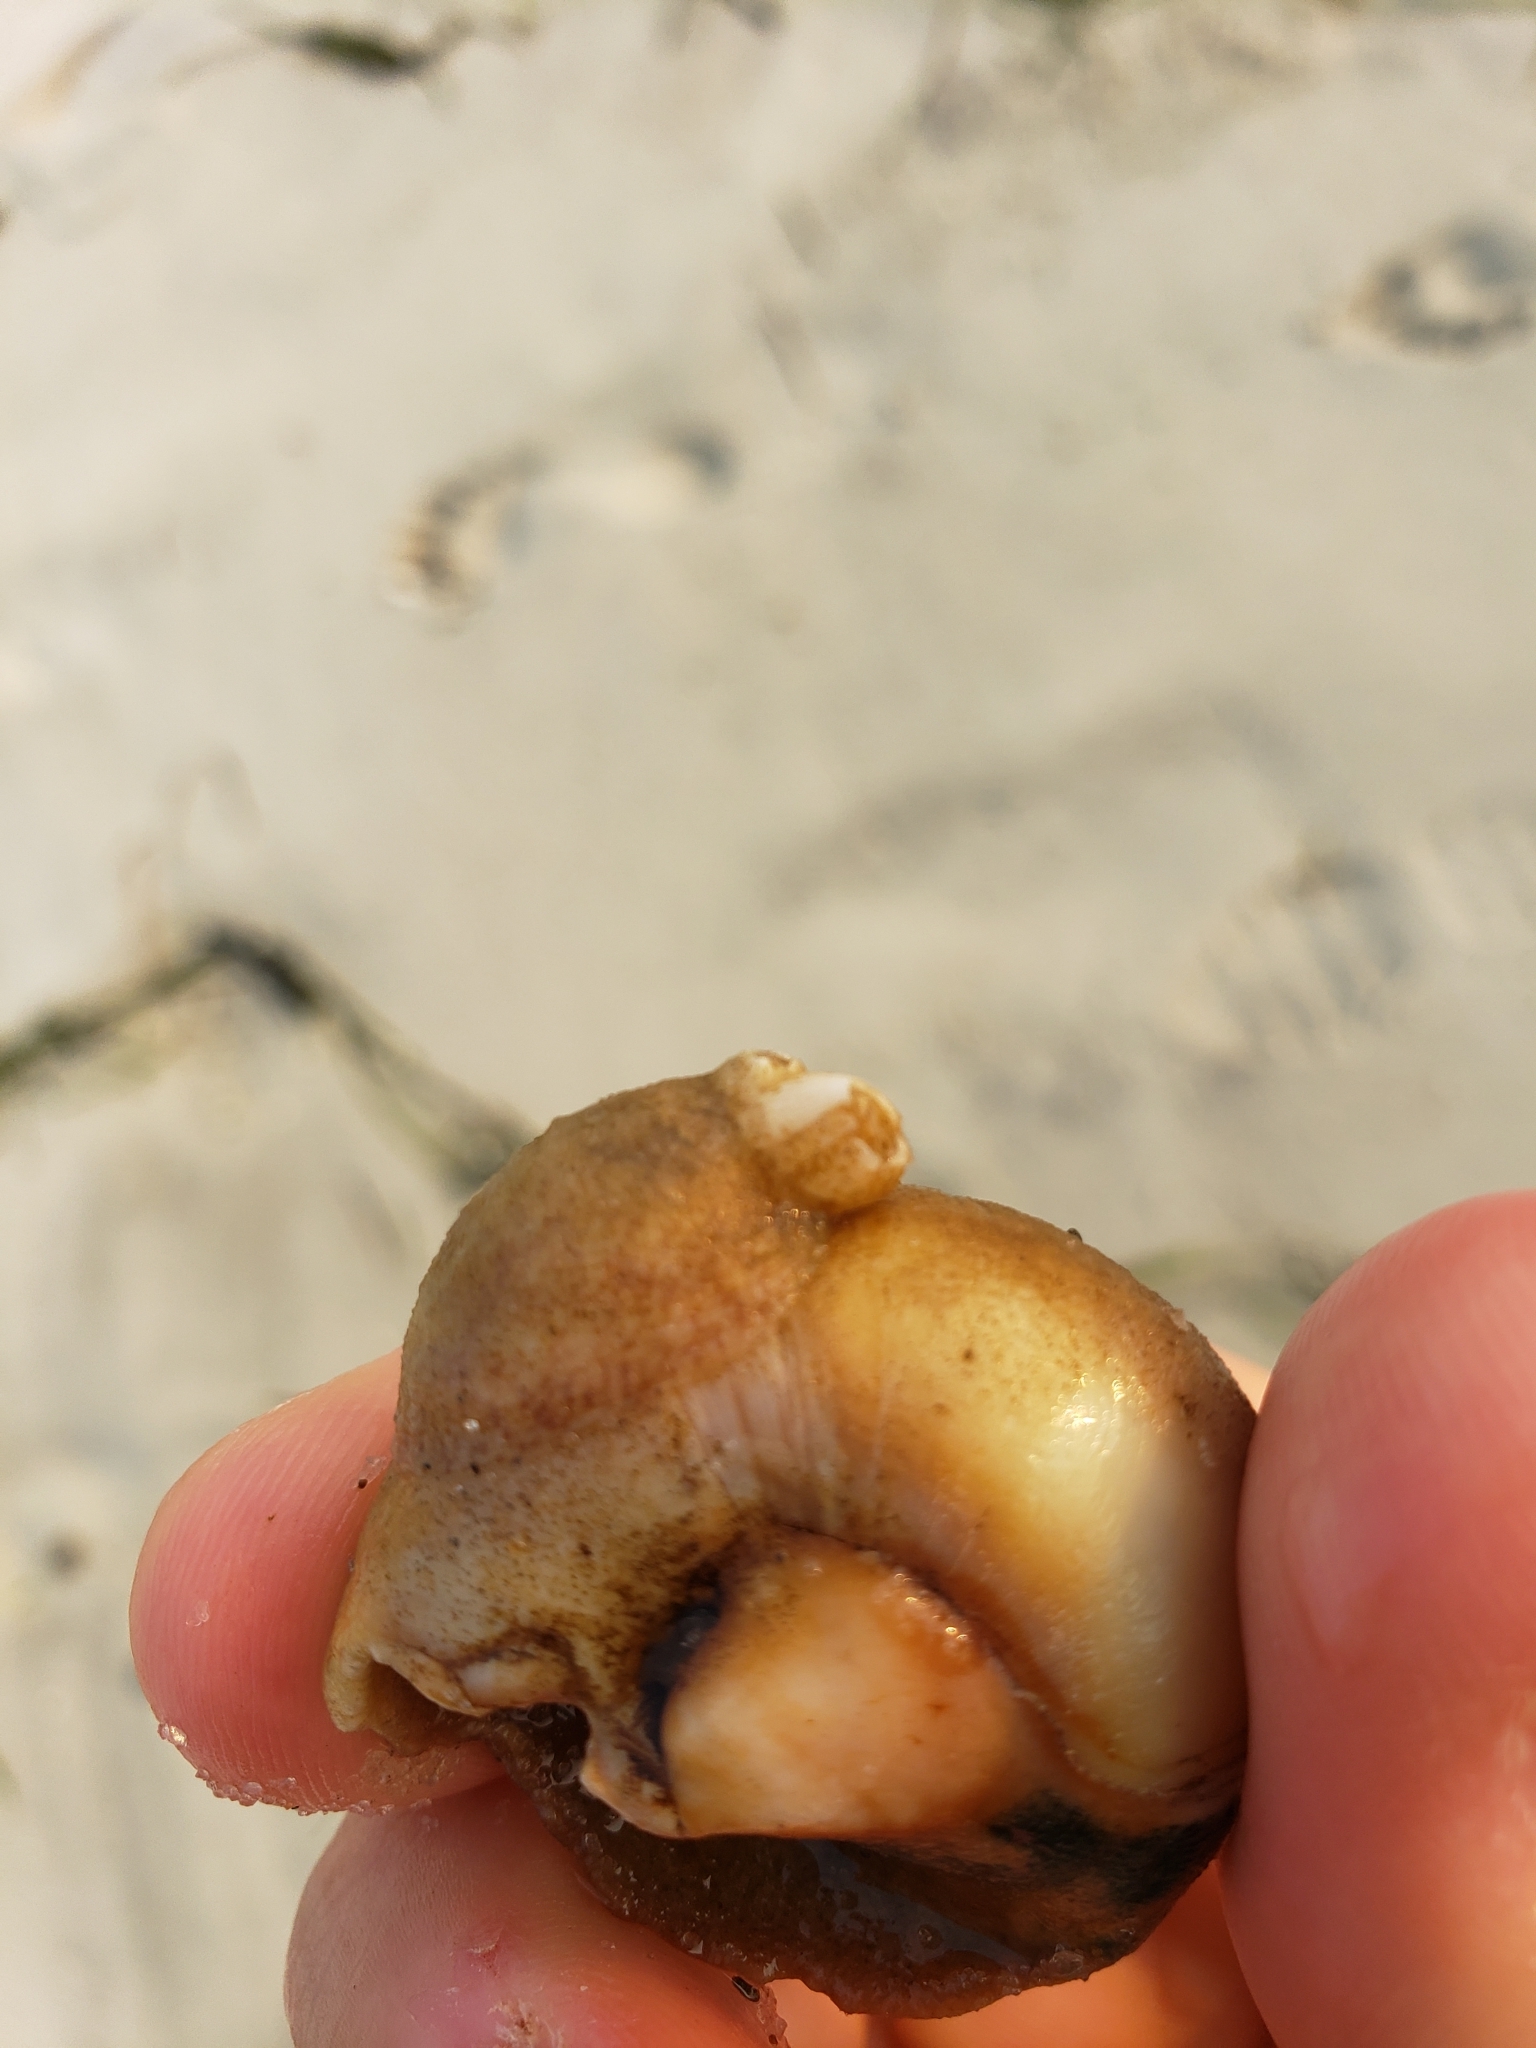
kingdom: Animalia
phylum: Mollusca
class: Gastropoda
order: Littorinimorpha
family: Calyptraeidae
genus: Crepidula
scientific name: Crepidula fornicata
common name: Slipper limpet
